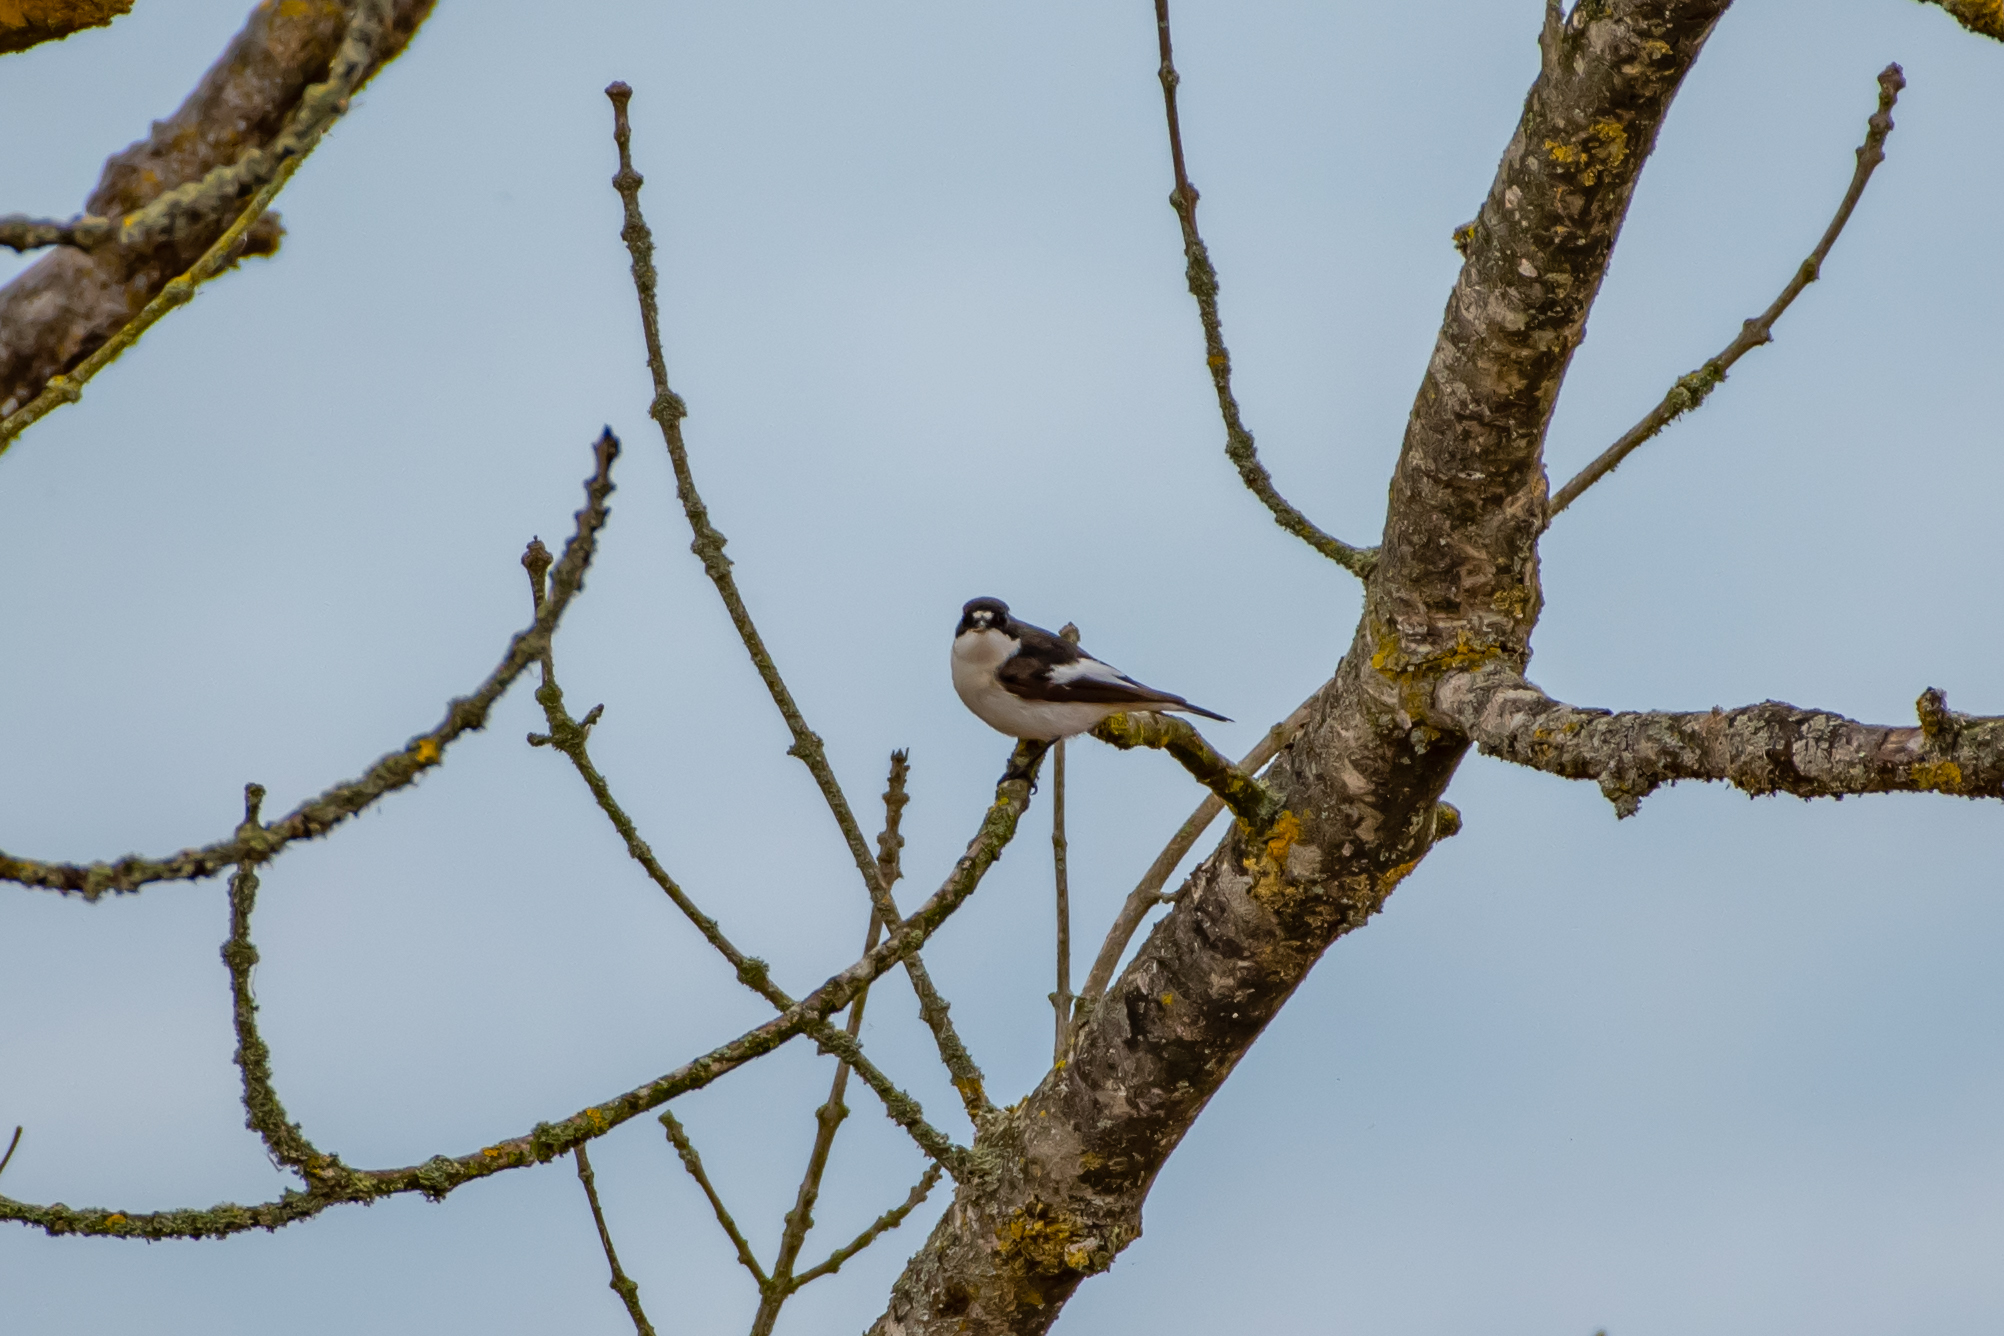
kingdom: Animalia
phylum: Chordata
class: Aves
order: Passeriformes
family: Muscicapidae
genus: Ficedula
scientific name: Ficedula hypoleuca
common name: European pied flycatcher
